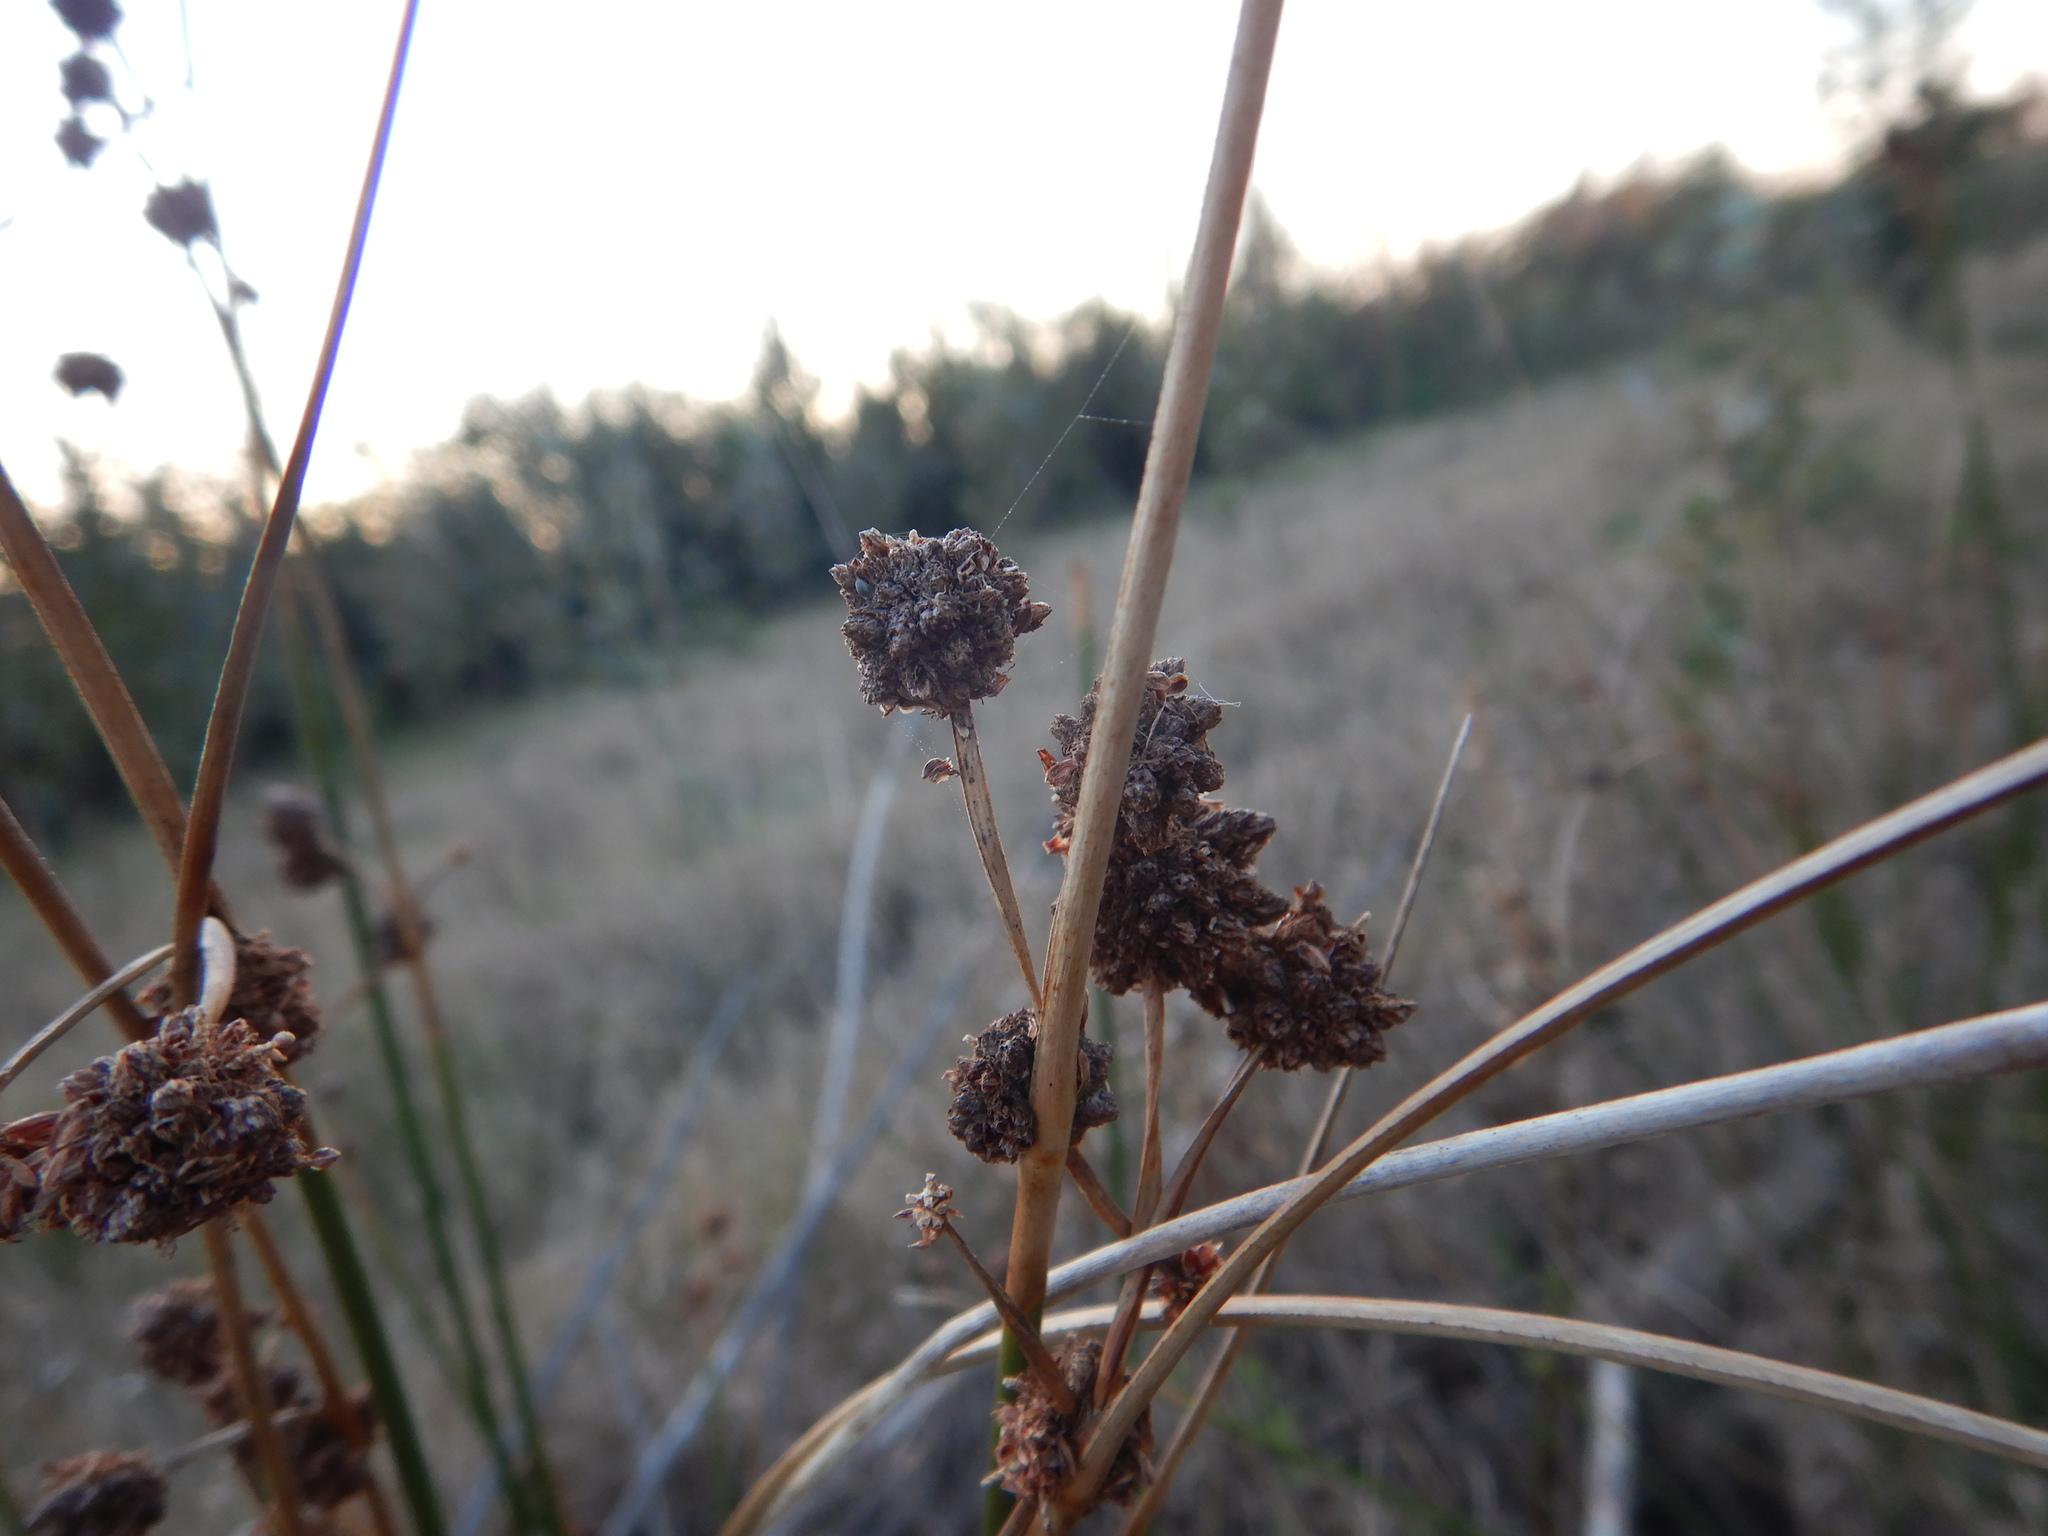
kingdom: Plantae
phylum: Tracheophyta
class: Liliopsida
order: Poales
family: Cyperaceae
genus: Scirpoides
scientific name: Scirpoides holoschoenus
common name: Round-headed club-rush
